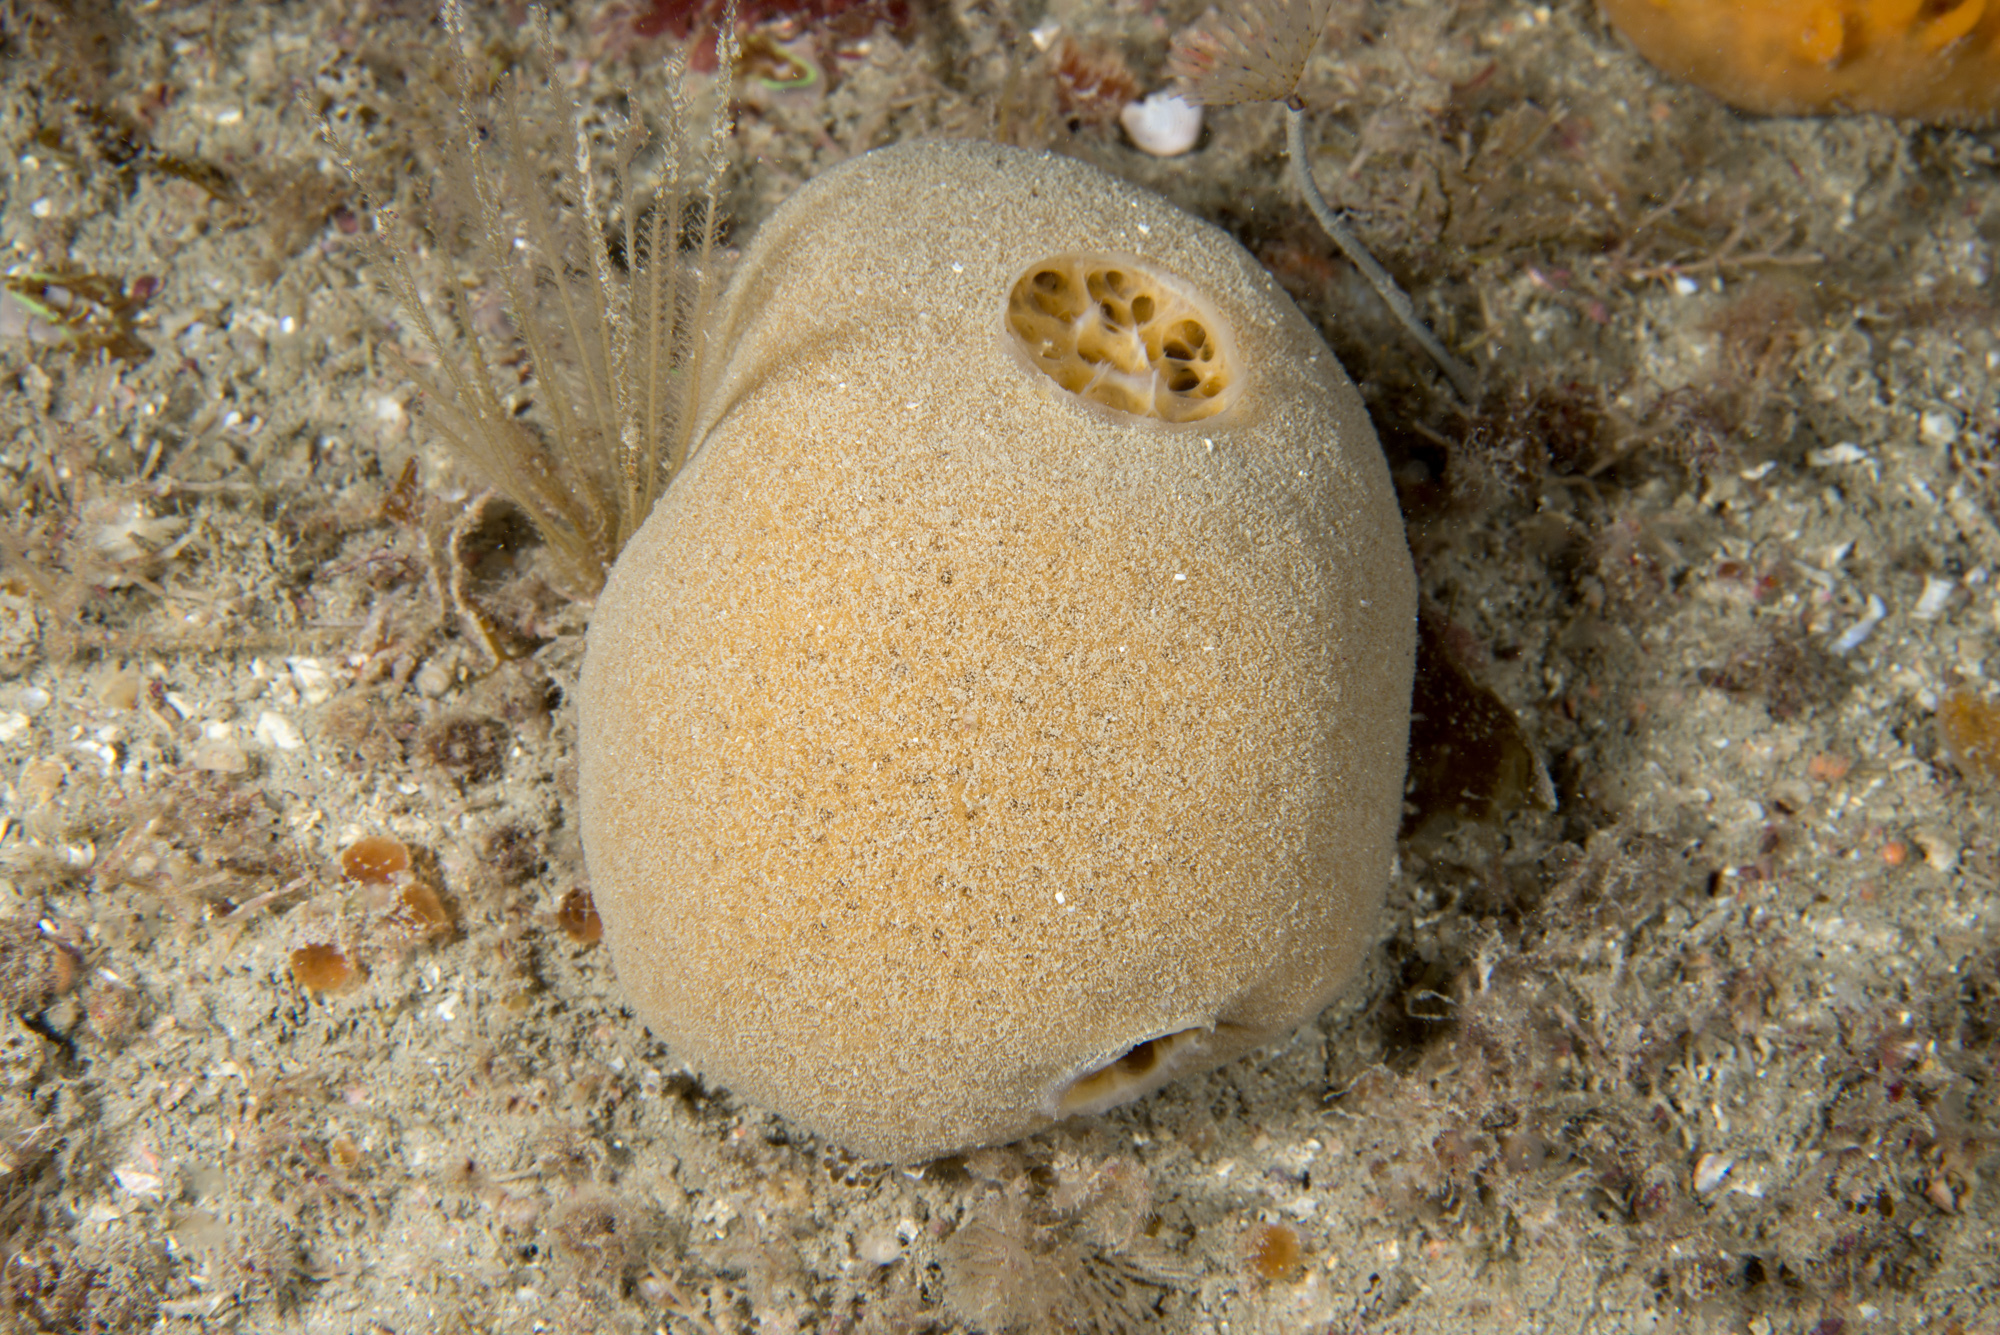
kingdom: Animalia
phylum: Porifera
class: Demospongiae
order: Suberitida
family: Suberitidae
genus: Suberites
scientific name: Suberites carnosus
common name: Fleshy horny sponge
